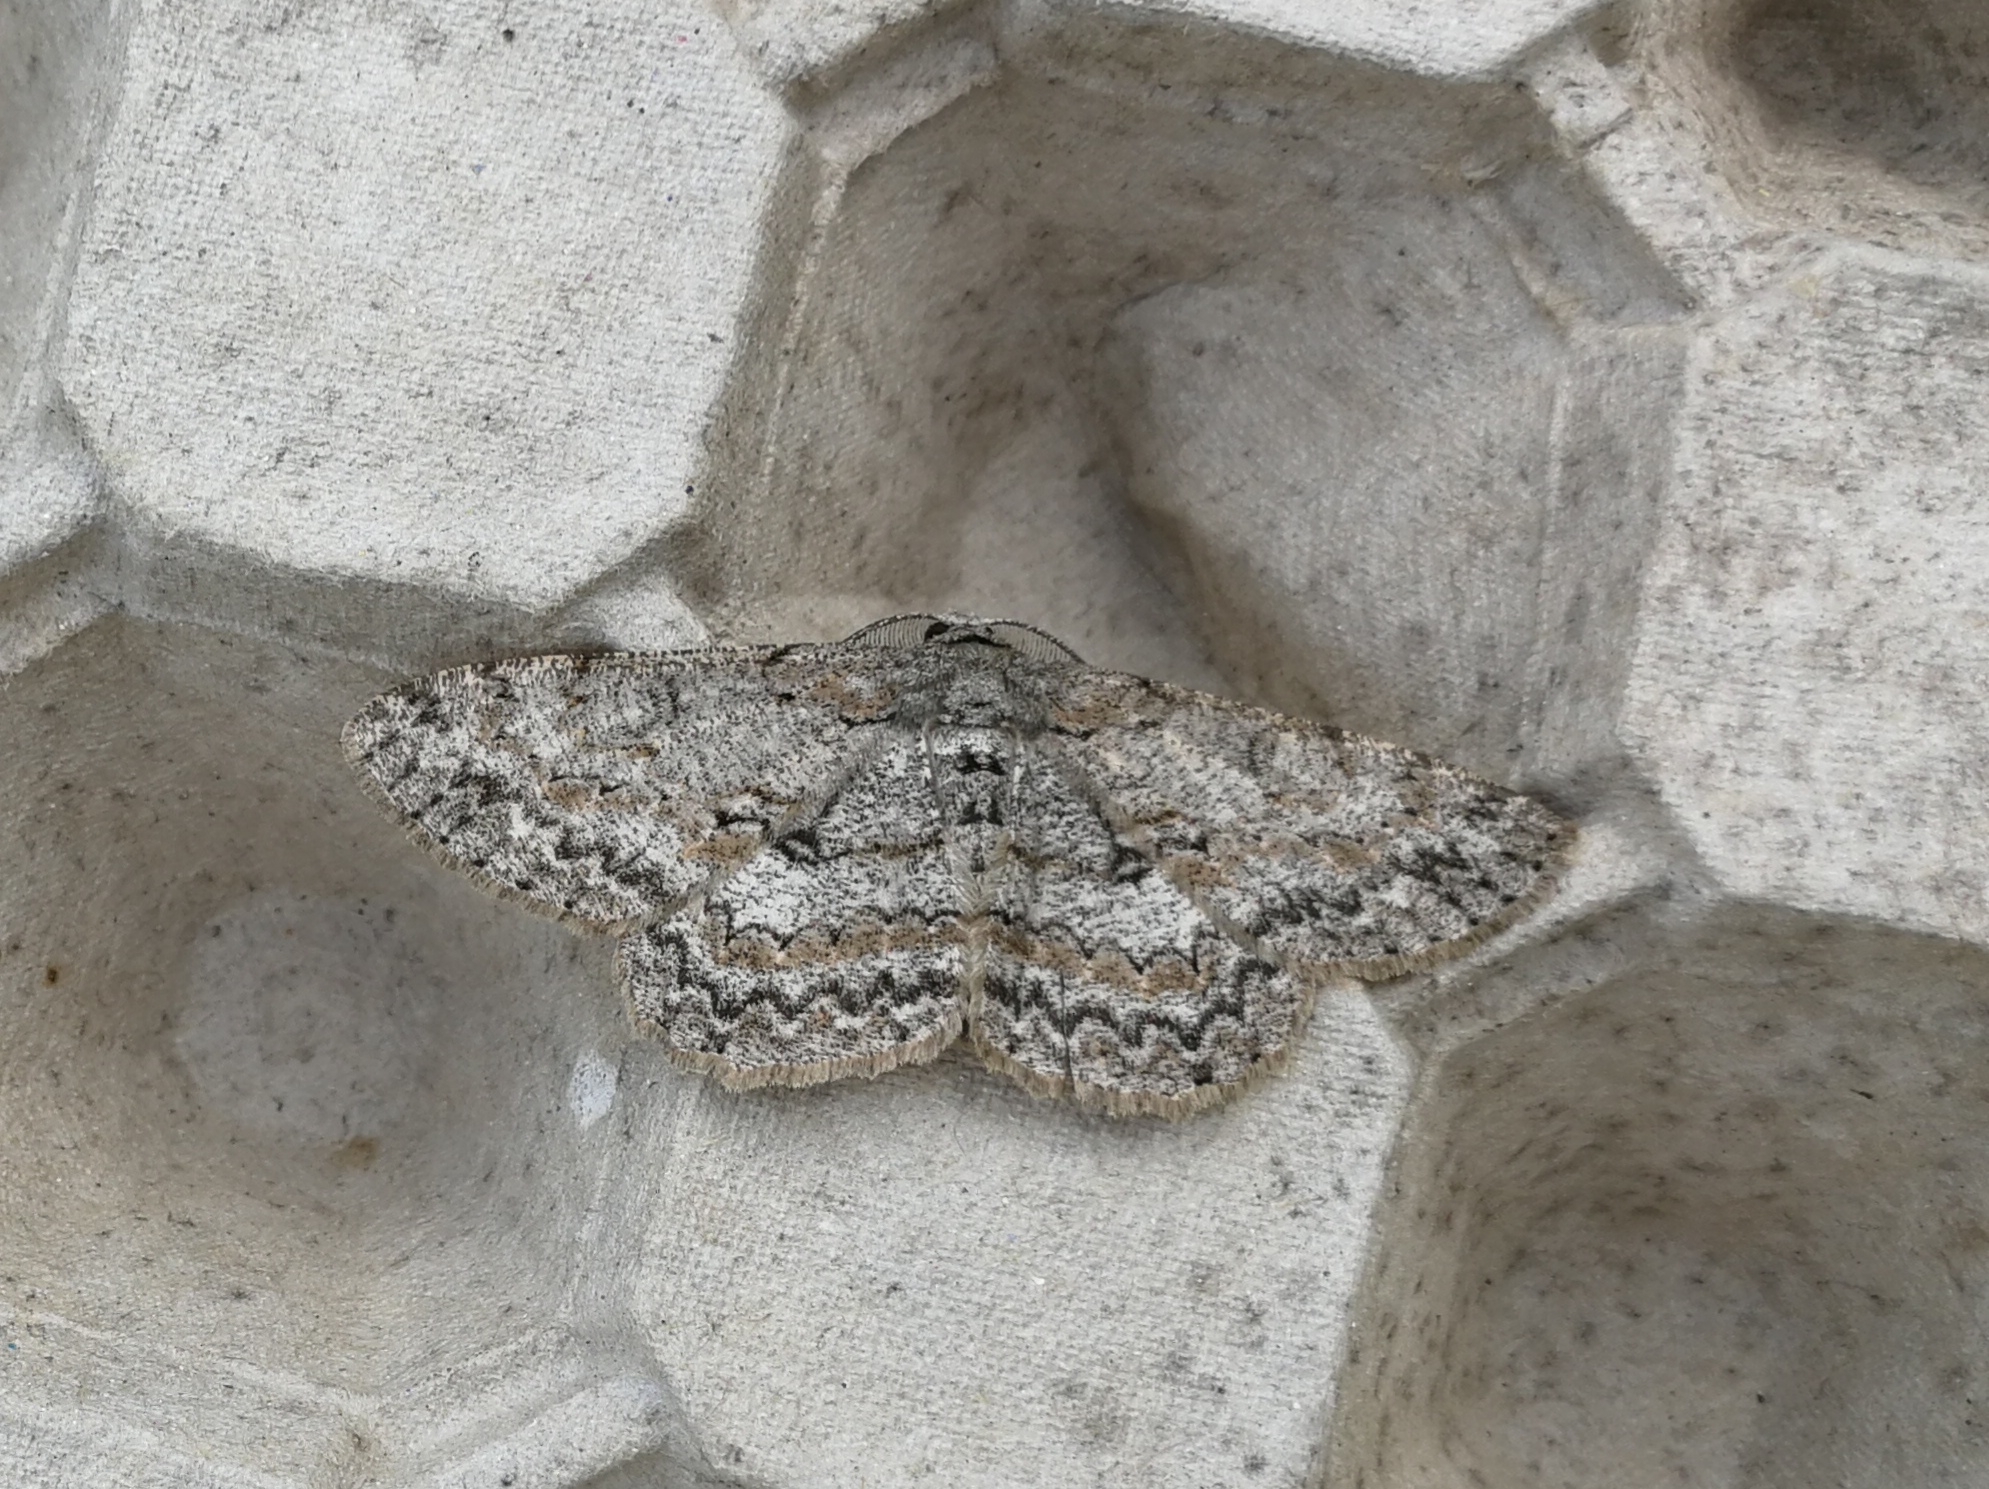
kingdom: Animalia
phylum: Arthropoda
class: Insecta
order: Lepidoptera
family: Geometridae
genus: Hypomecis
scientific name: Hypomecis punctinalis
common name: Pale oak beauty
